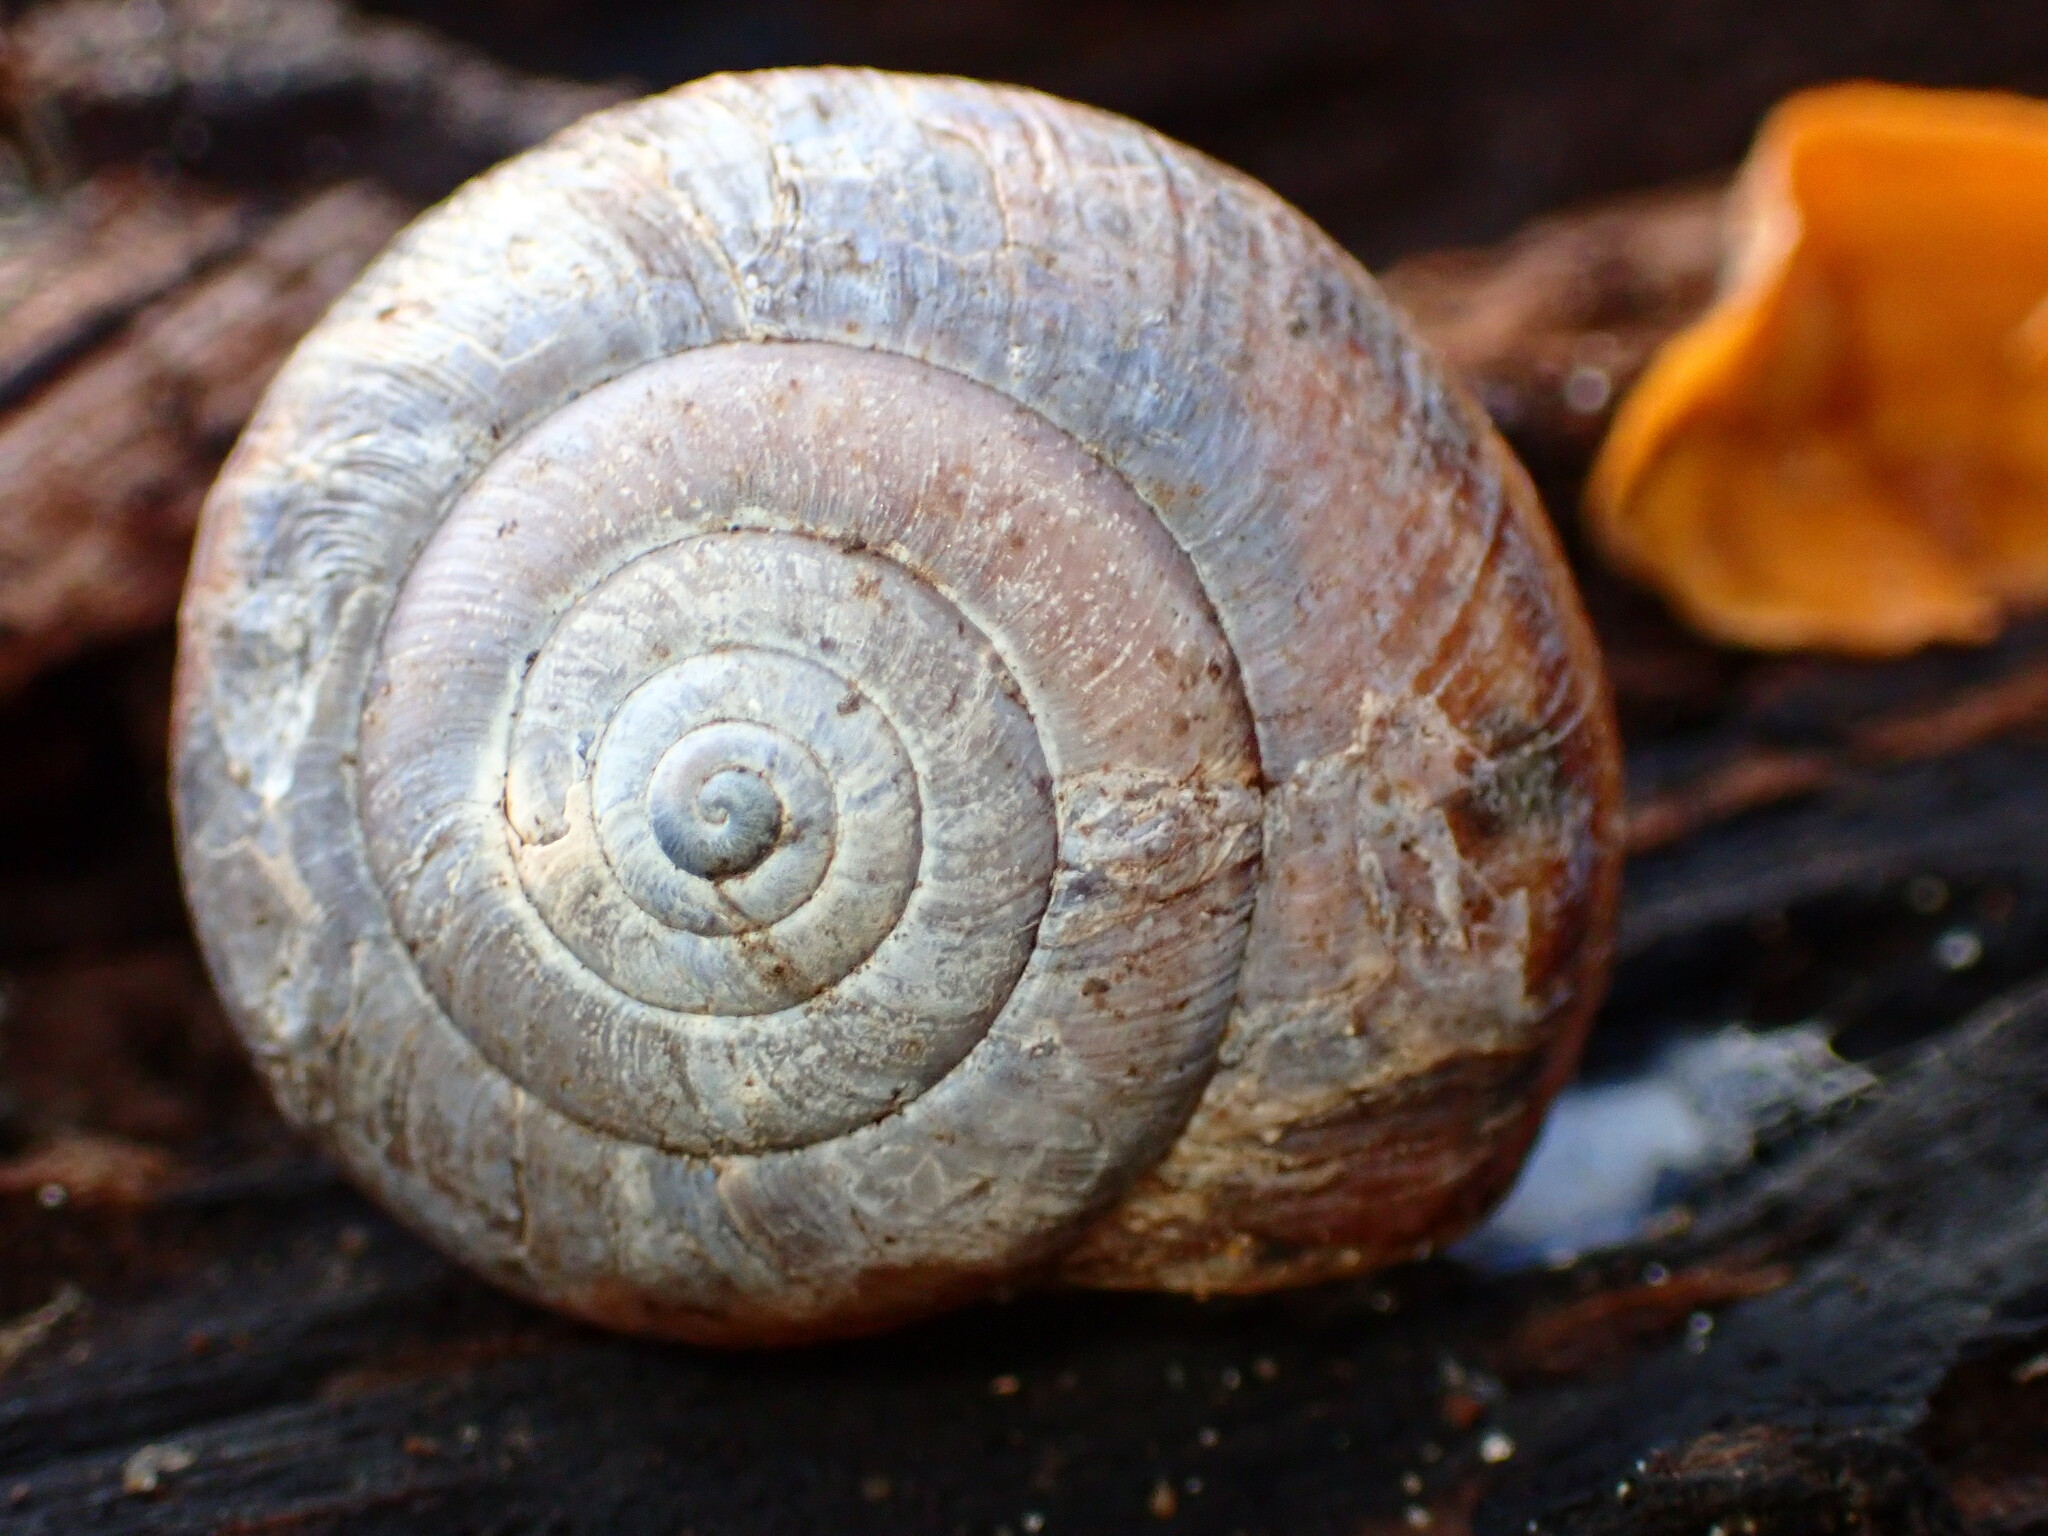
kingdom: Animalia
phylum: Mollusca
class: Gastropoda
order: Stylommatophora
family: Xanthonychidae
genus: Helminthoglypta
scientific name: Helminthoglypta umbilicata
